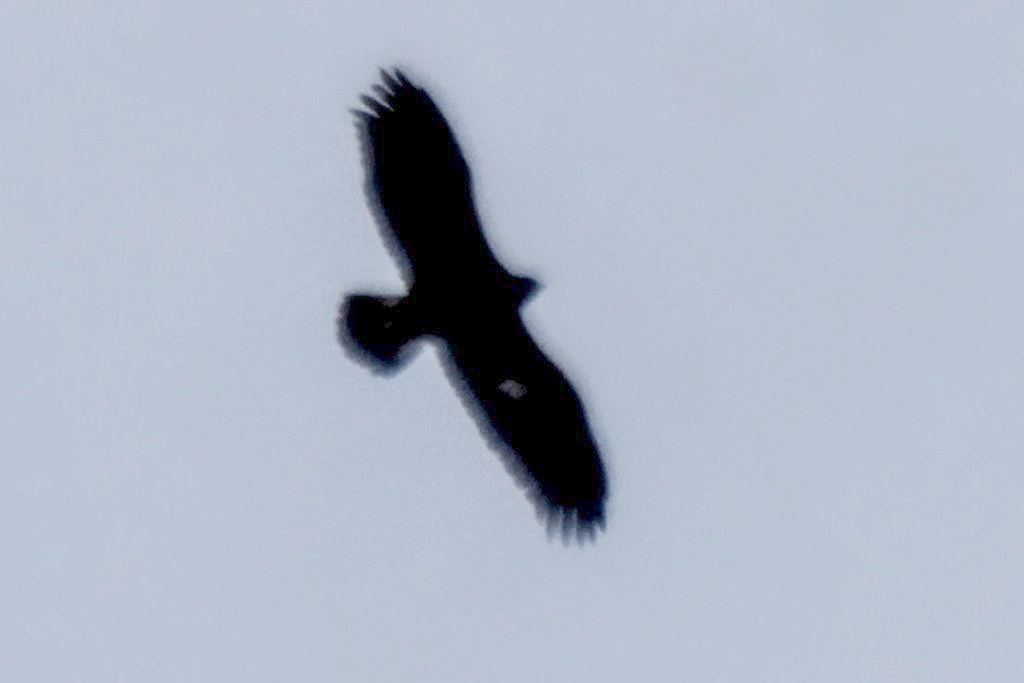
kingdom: Animalia
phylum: Chordata
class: Aves
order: Accipitriformes
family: Accipitridae
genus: Aquila
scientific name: Aquila chrysaetos
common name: Golden eagle
